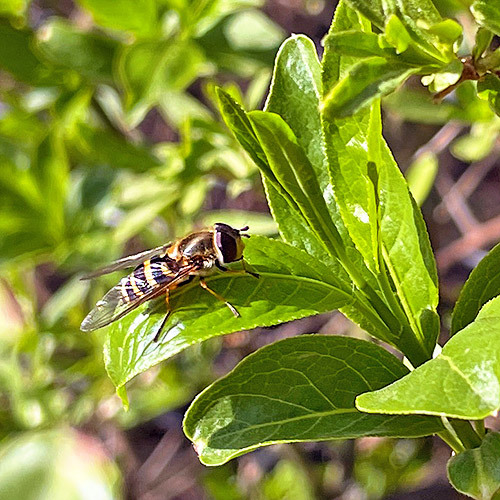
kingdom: Animalia
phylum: Arthropoda
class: Insecta
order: Diptera
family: Syrphidae
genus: Syrphus
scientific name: Syrphus
